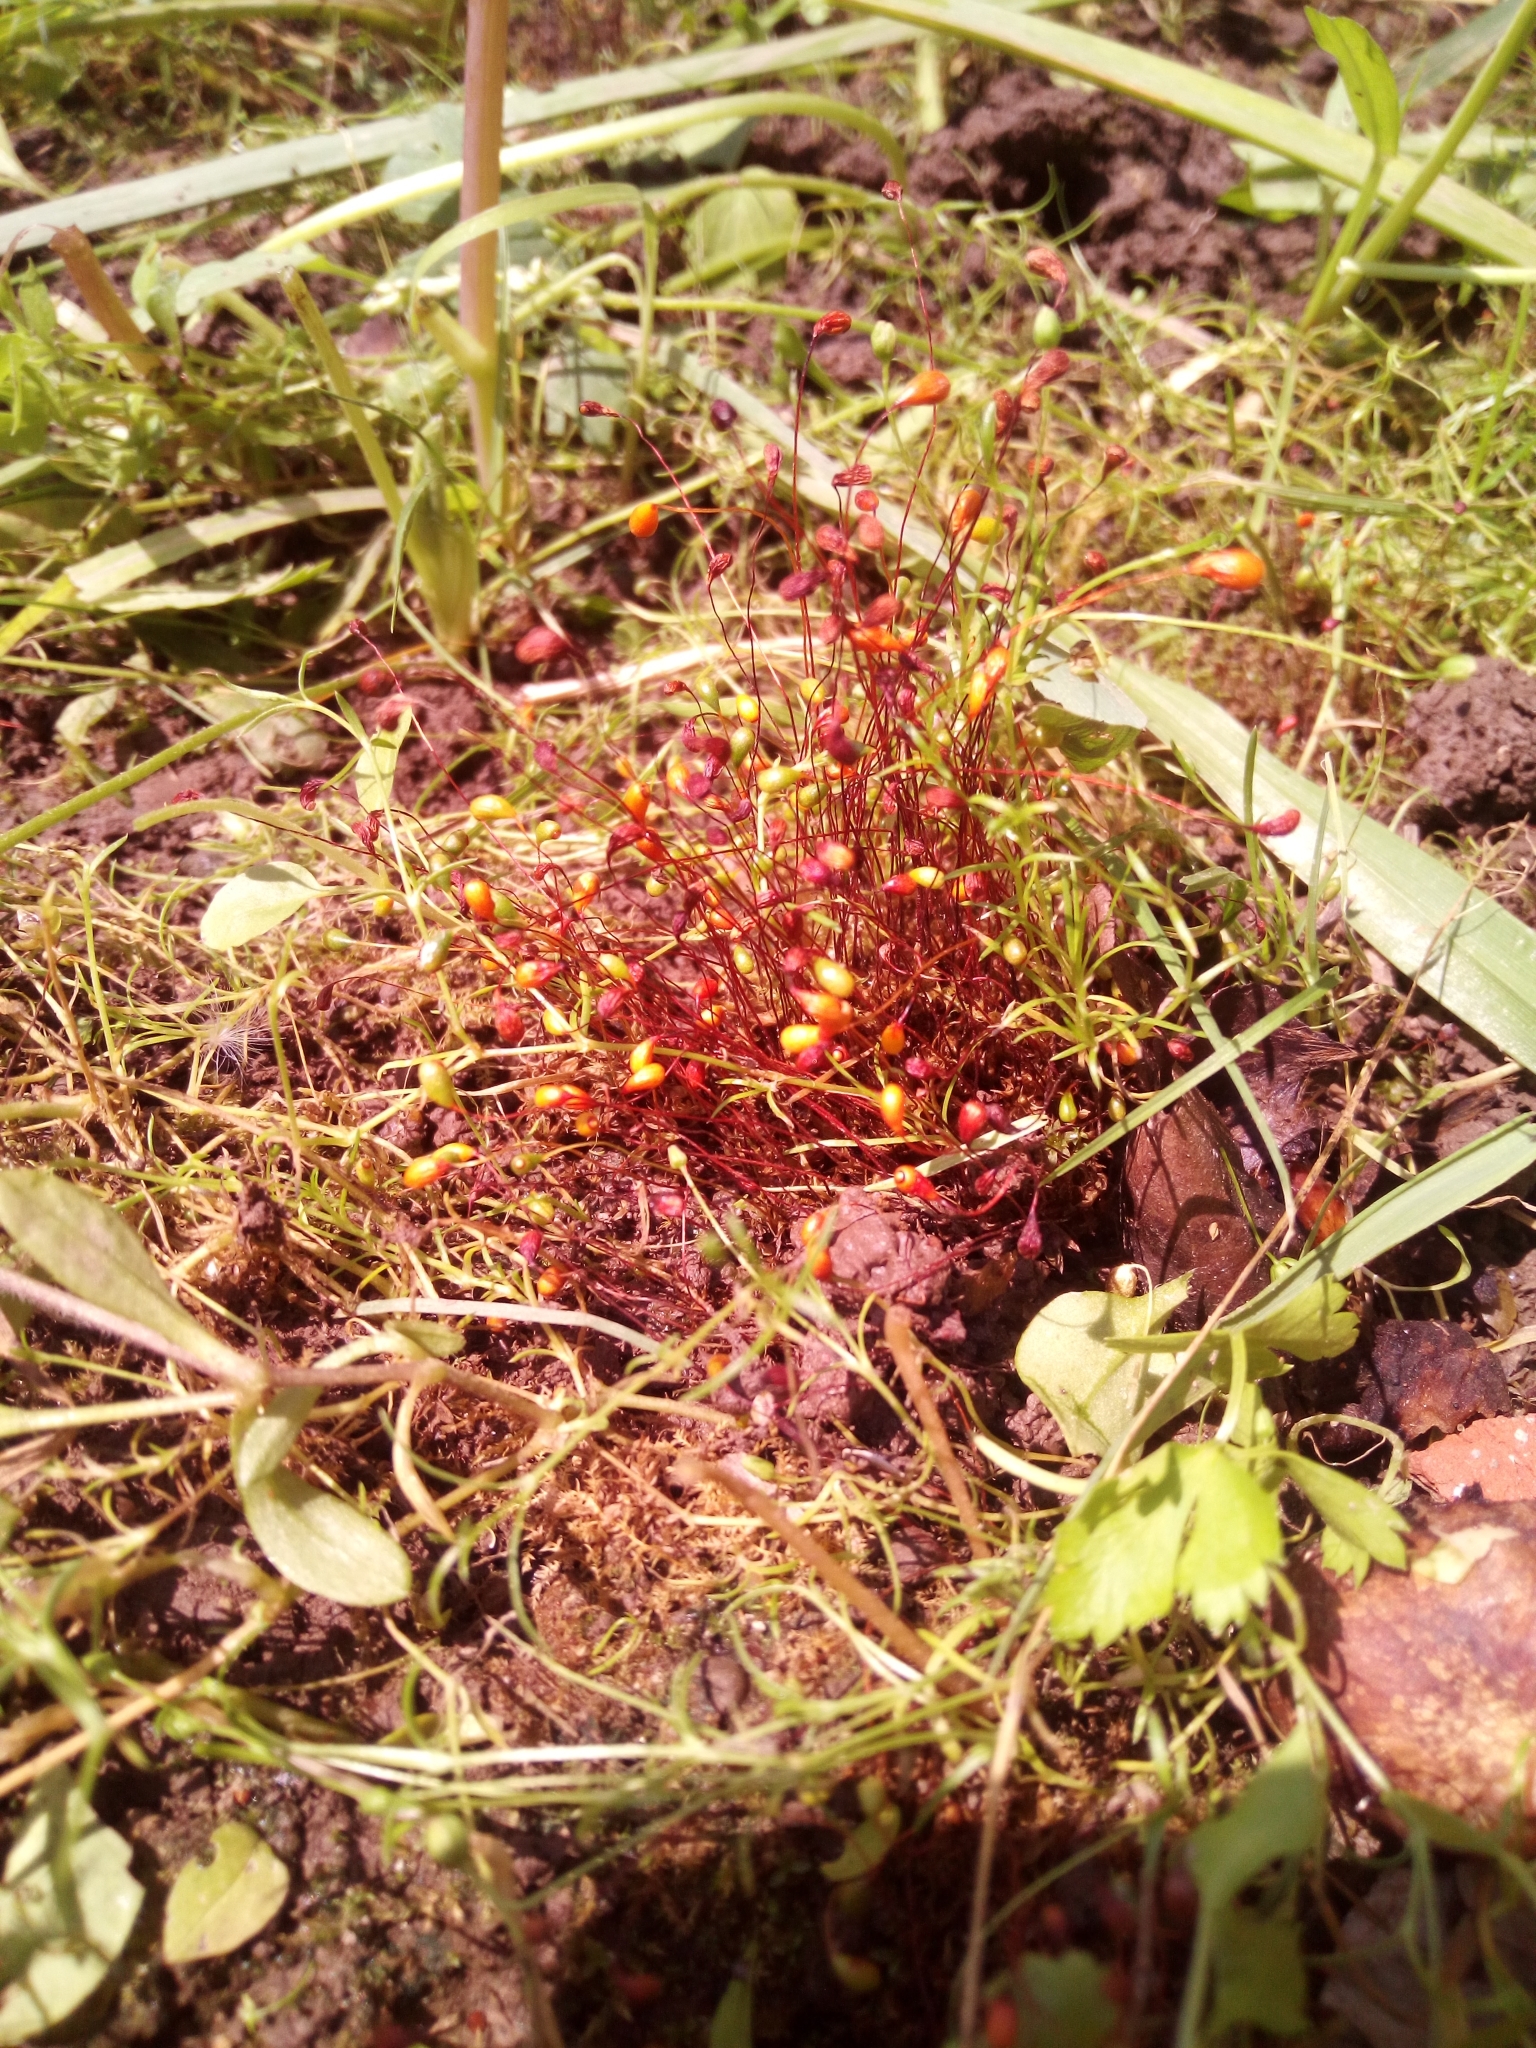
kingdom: Plantae
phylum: Bryophyta
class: Bryopsida
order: Funariales
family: Funariaceae
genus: Funaria
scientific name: Funaria hygrometrica
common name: Common cord moss
